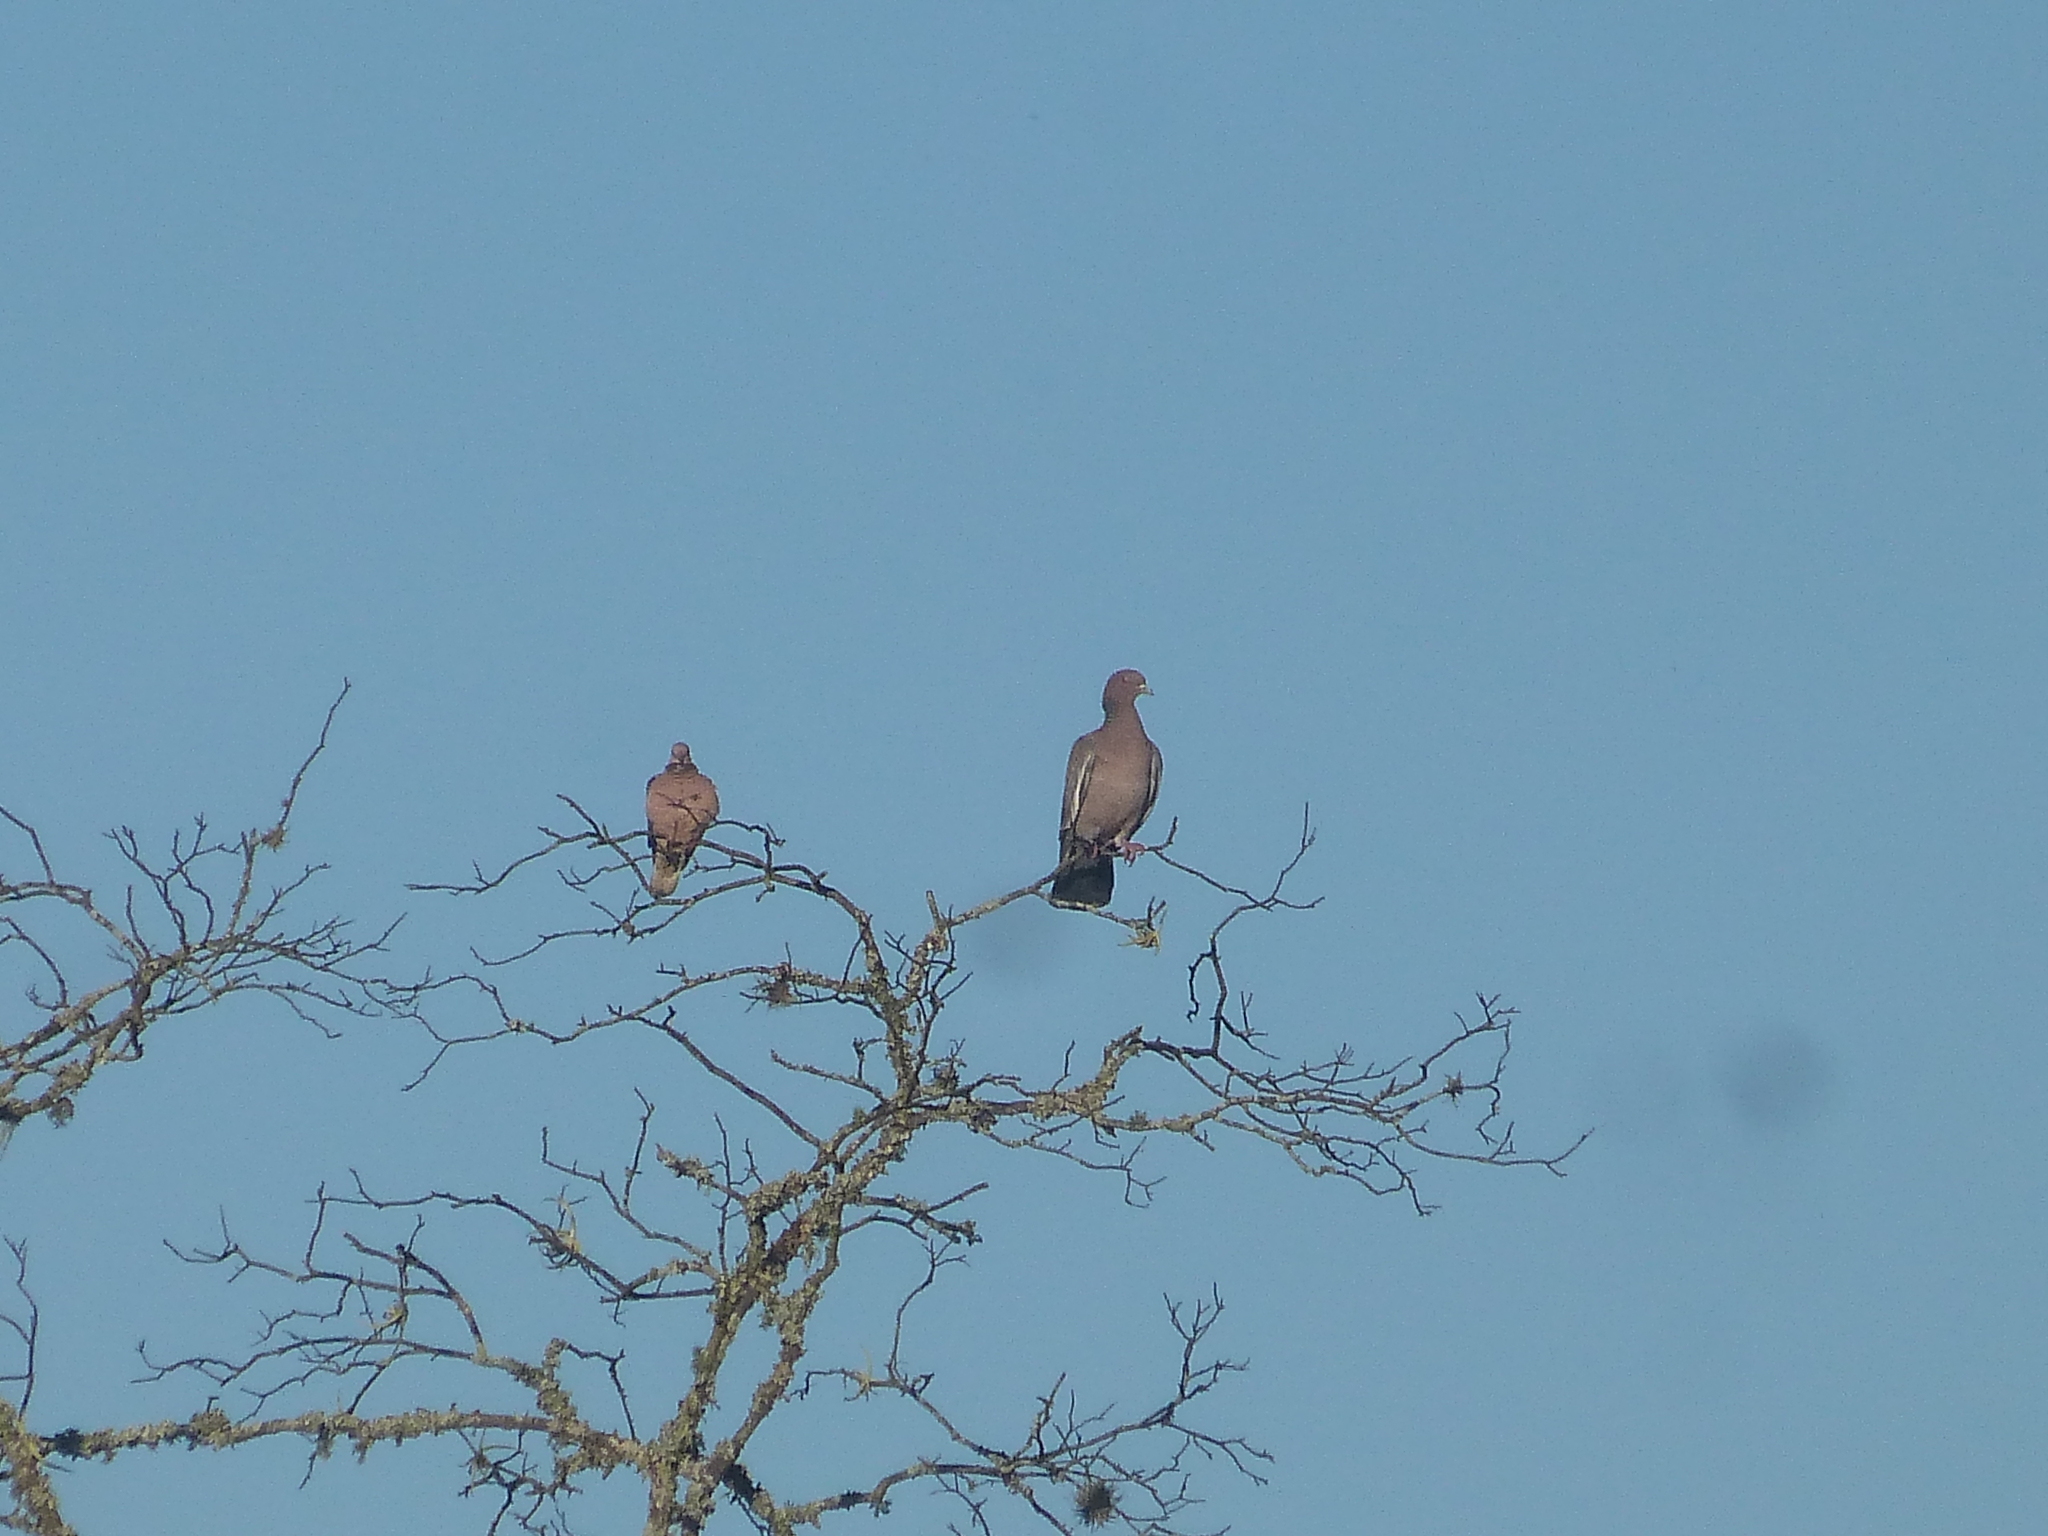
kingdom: Animalia
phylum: Chordata
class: Aves
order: Columbiformes
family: Columbidae
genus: Patagioenas
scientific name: Patagioenas picazuro
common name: Picazuro pigeon
